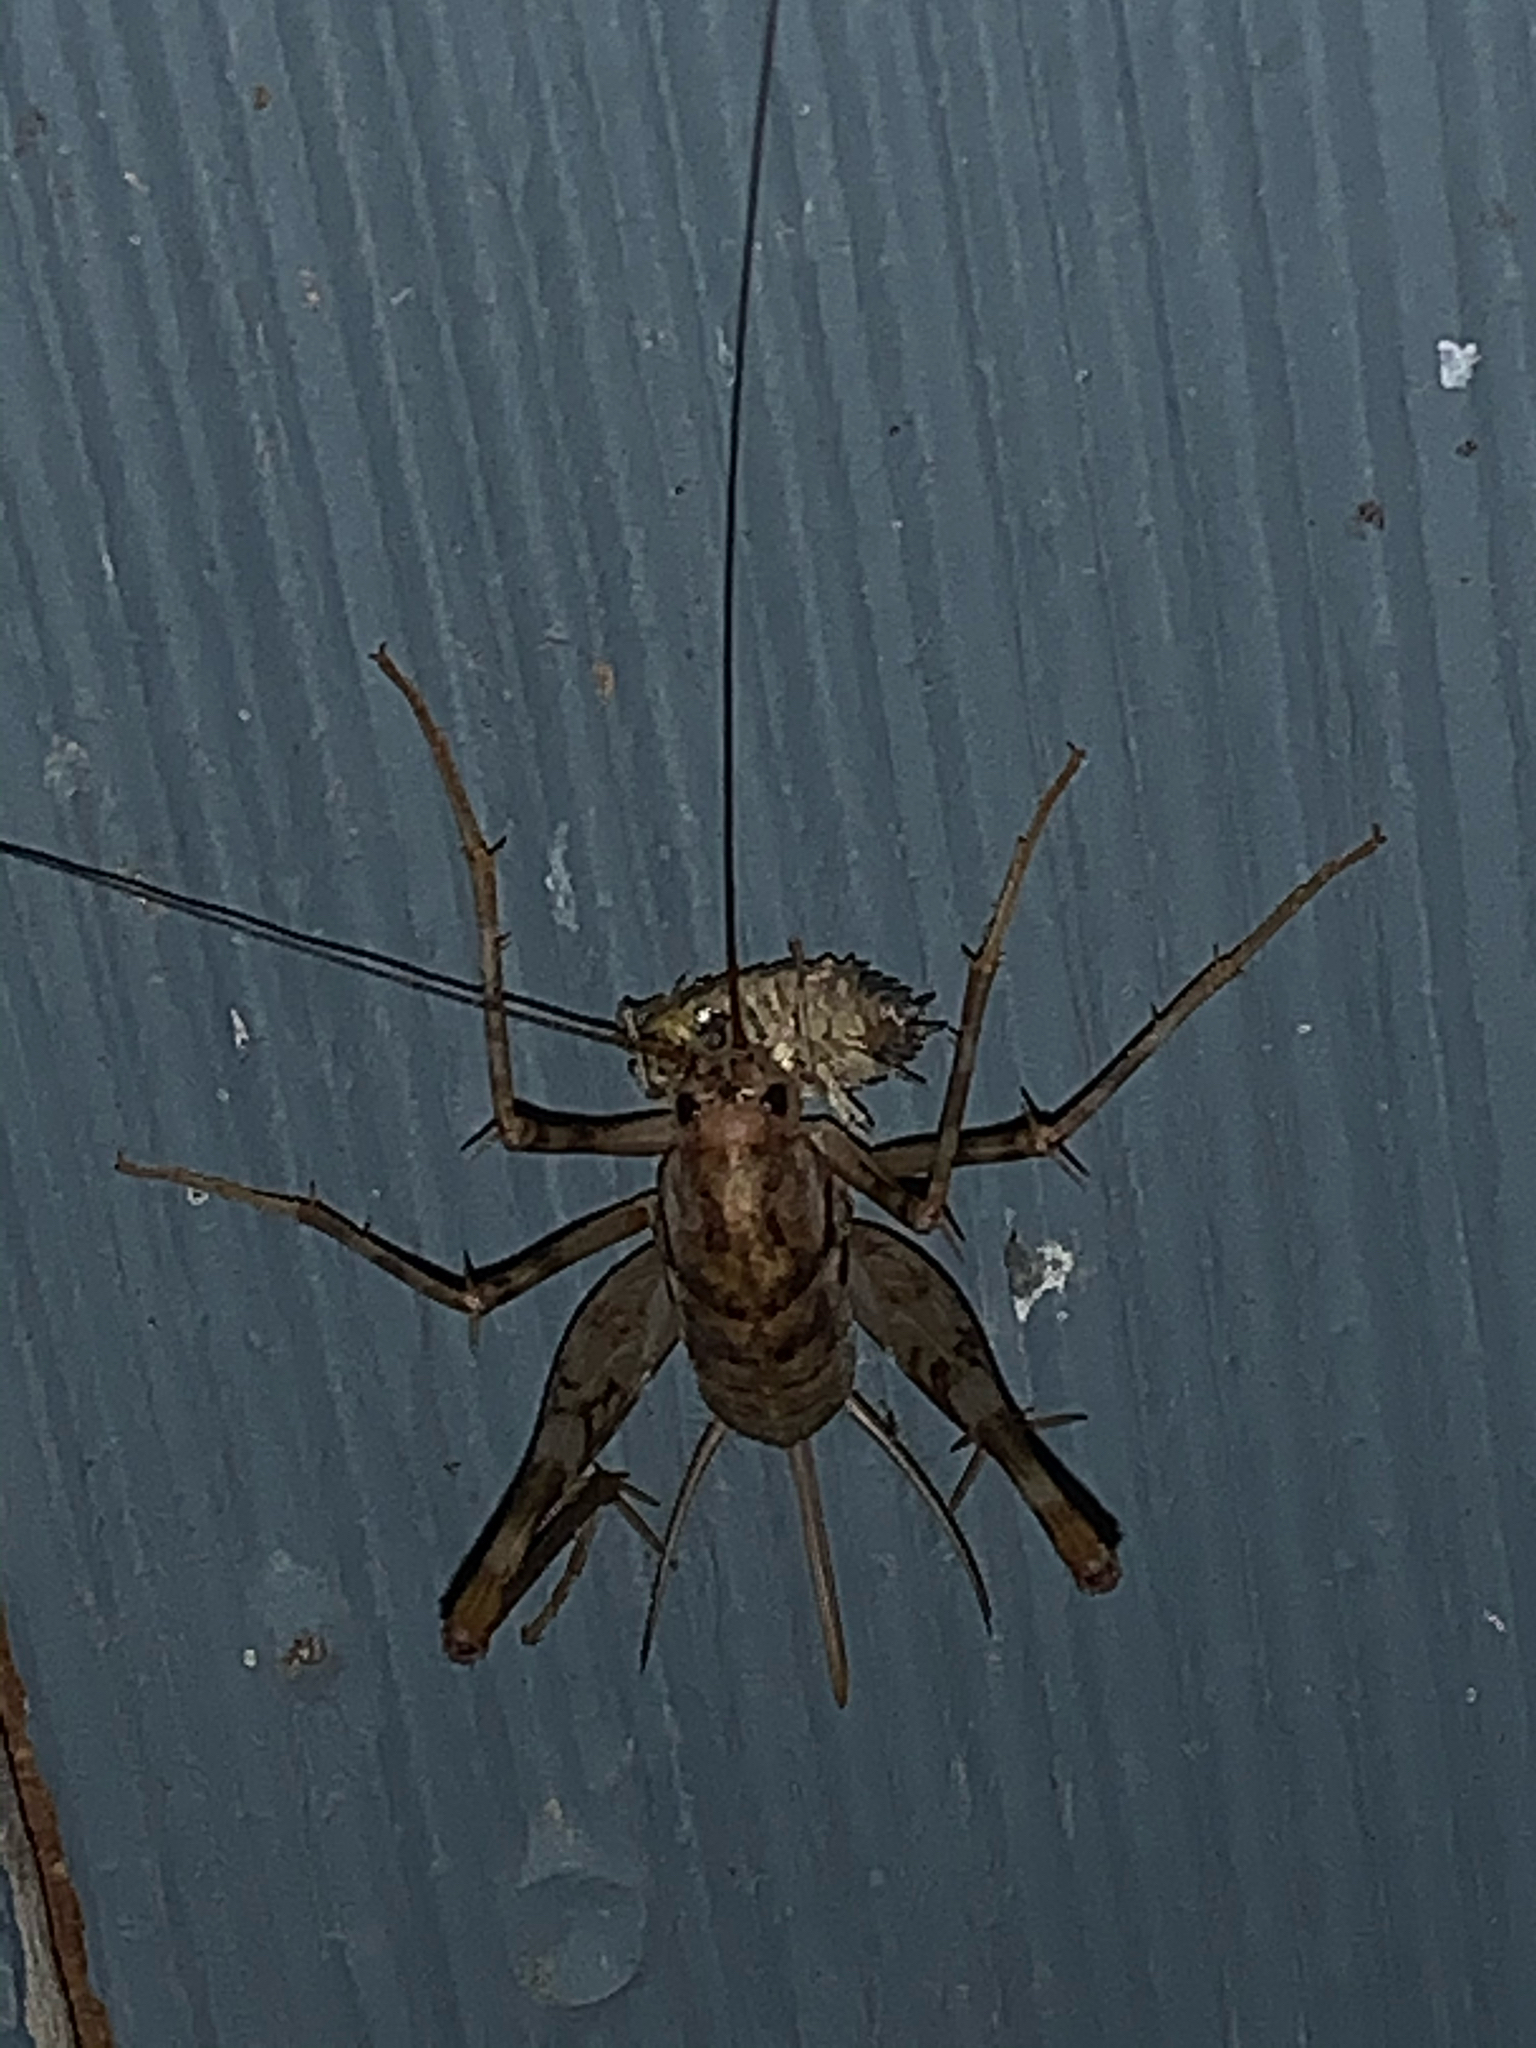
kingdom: Animalia
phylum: Arthropoda
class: Insecta
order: Orthoptera
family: Rhaphidophoridae
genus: Tachycines
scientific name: Tachycines asynamorus
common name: Greenhouse camel cricket
